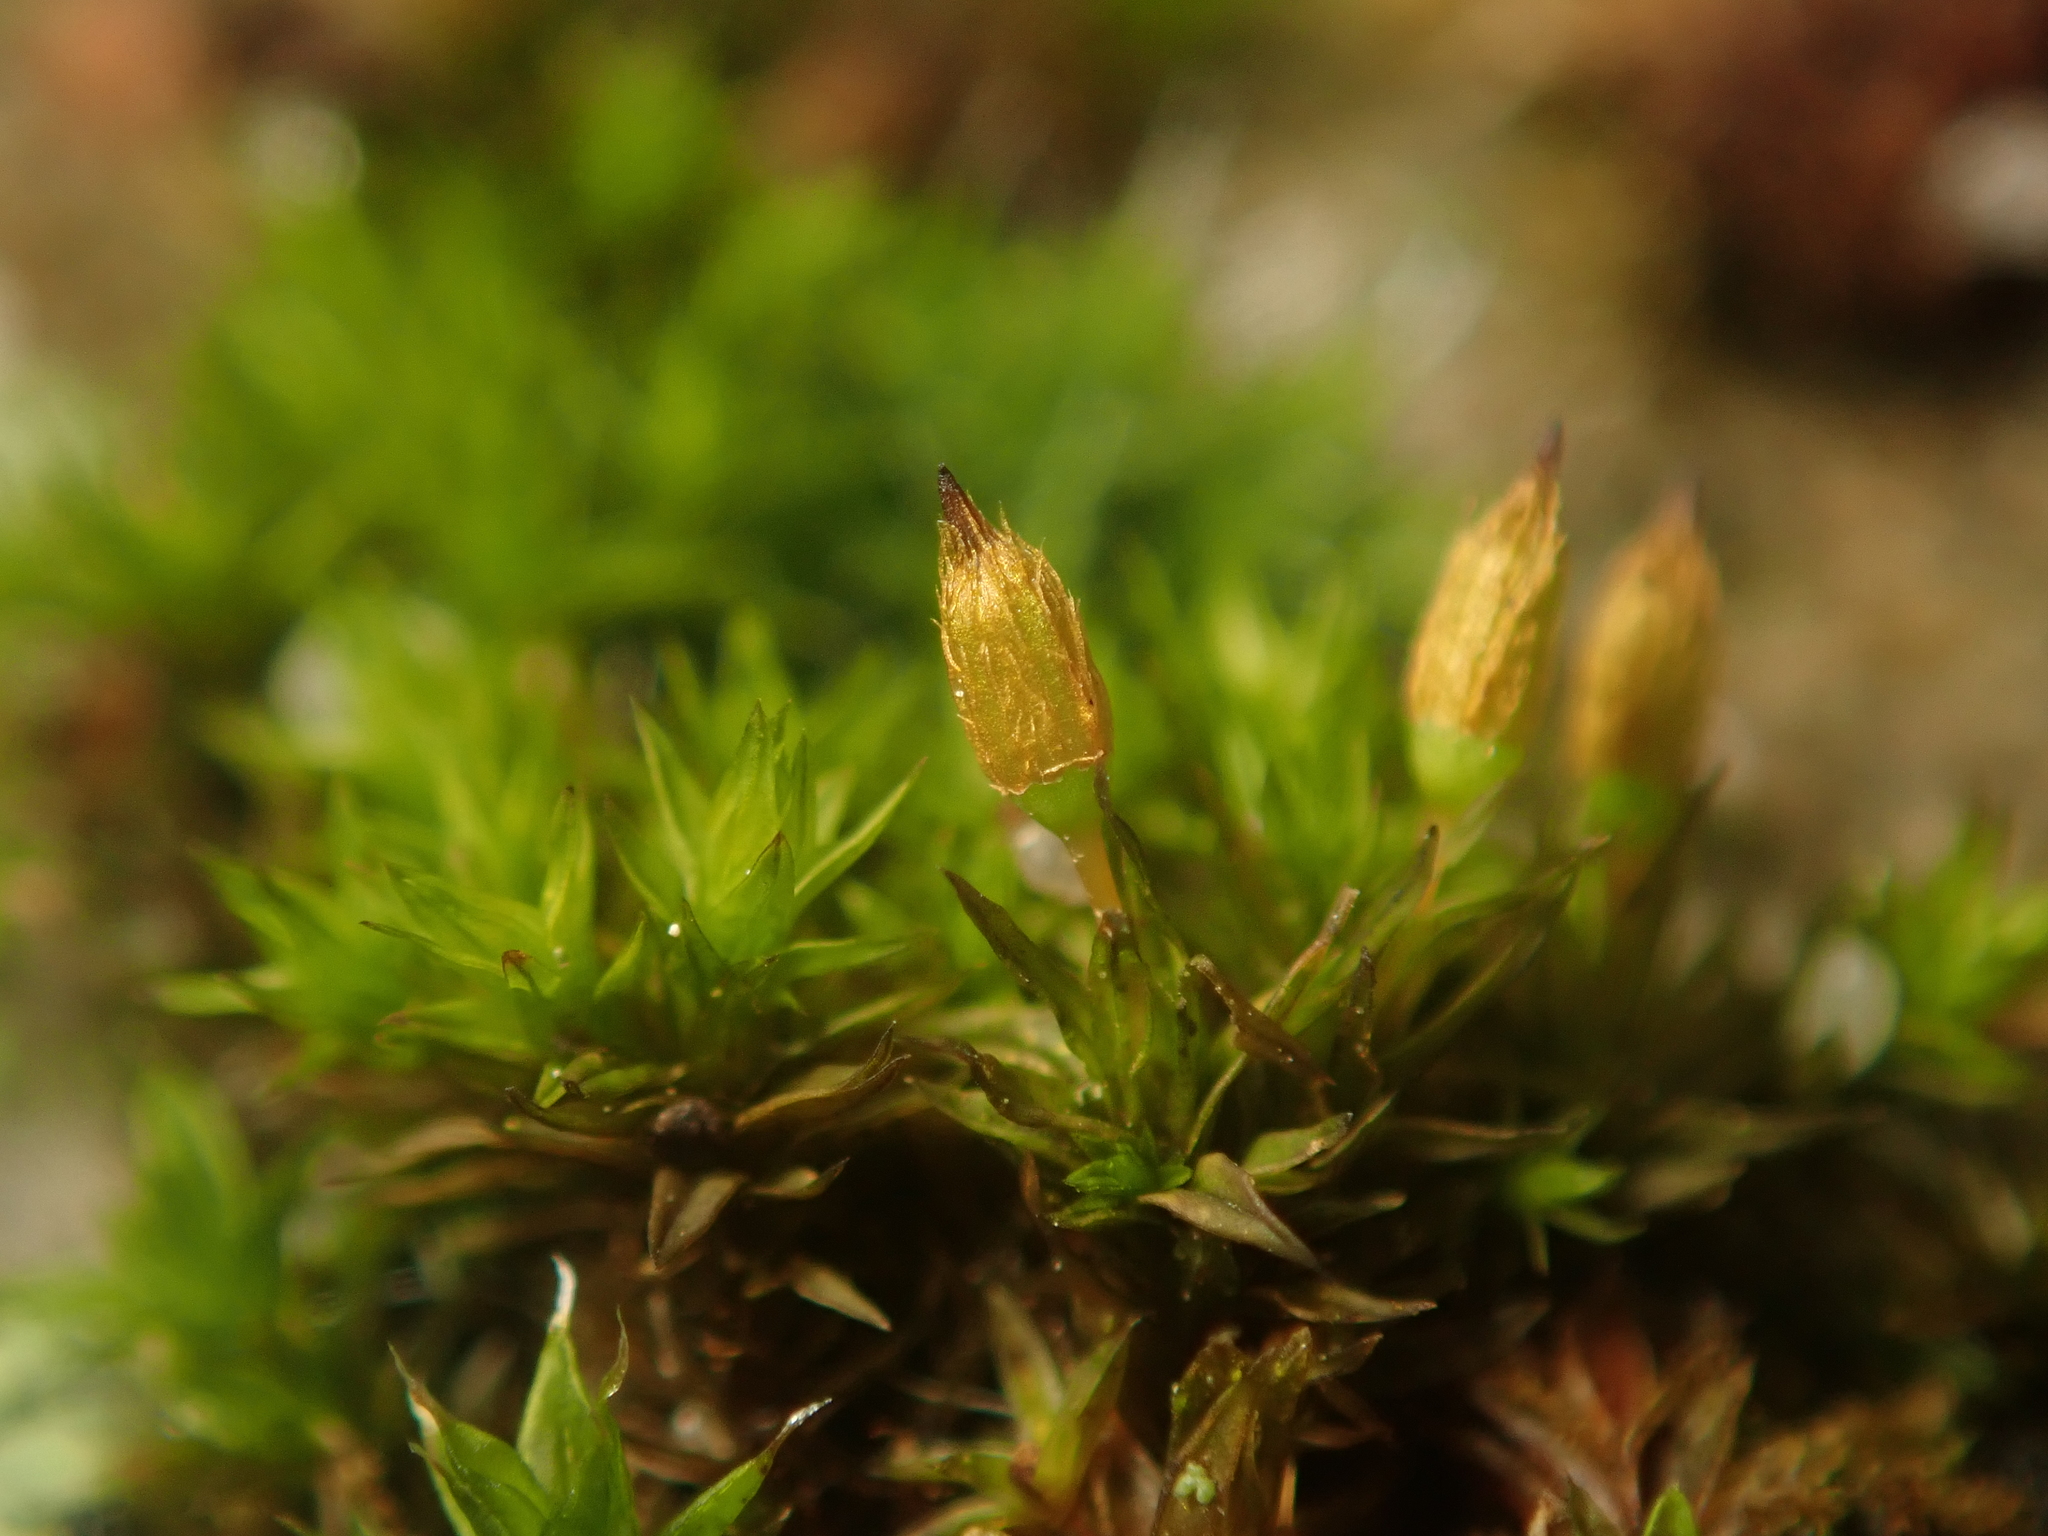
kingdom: Plantae
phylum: Bryophyta
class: Bryopsida
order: Orthotrichales
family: Orthotrichaceae
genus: Orthotrichum
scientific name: Orthotrichum anomalum
